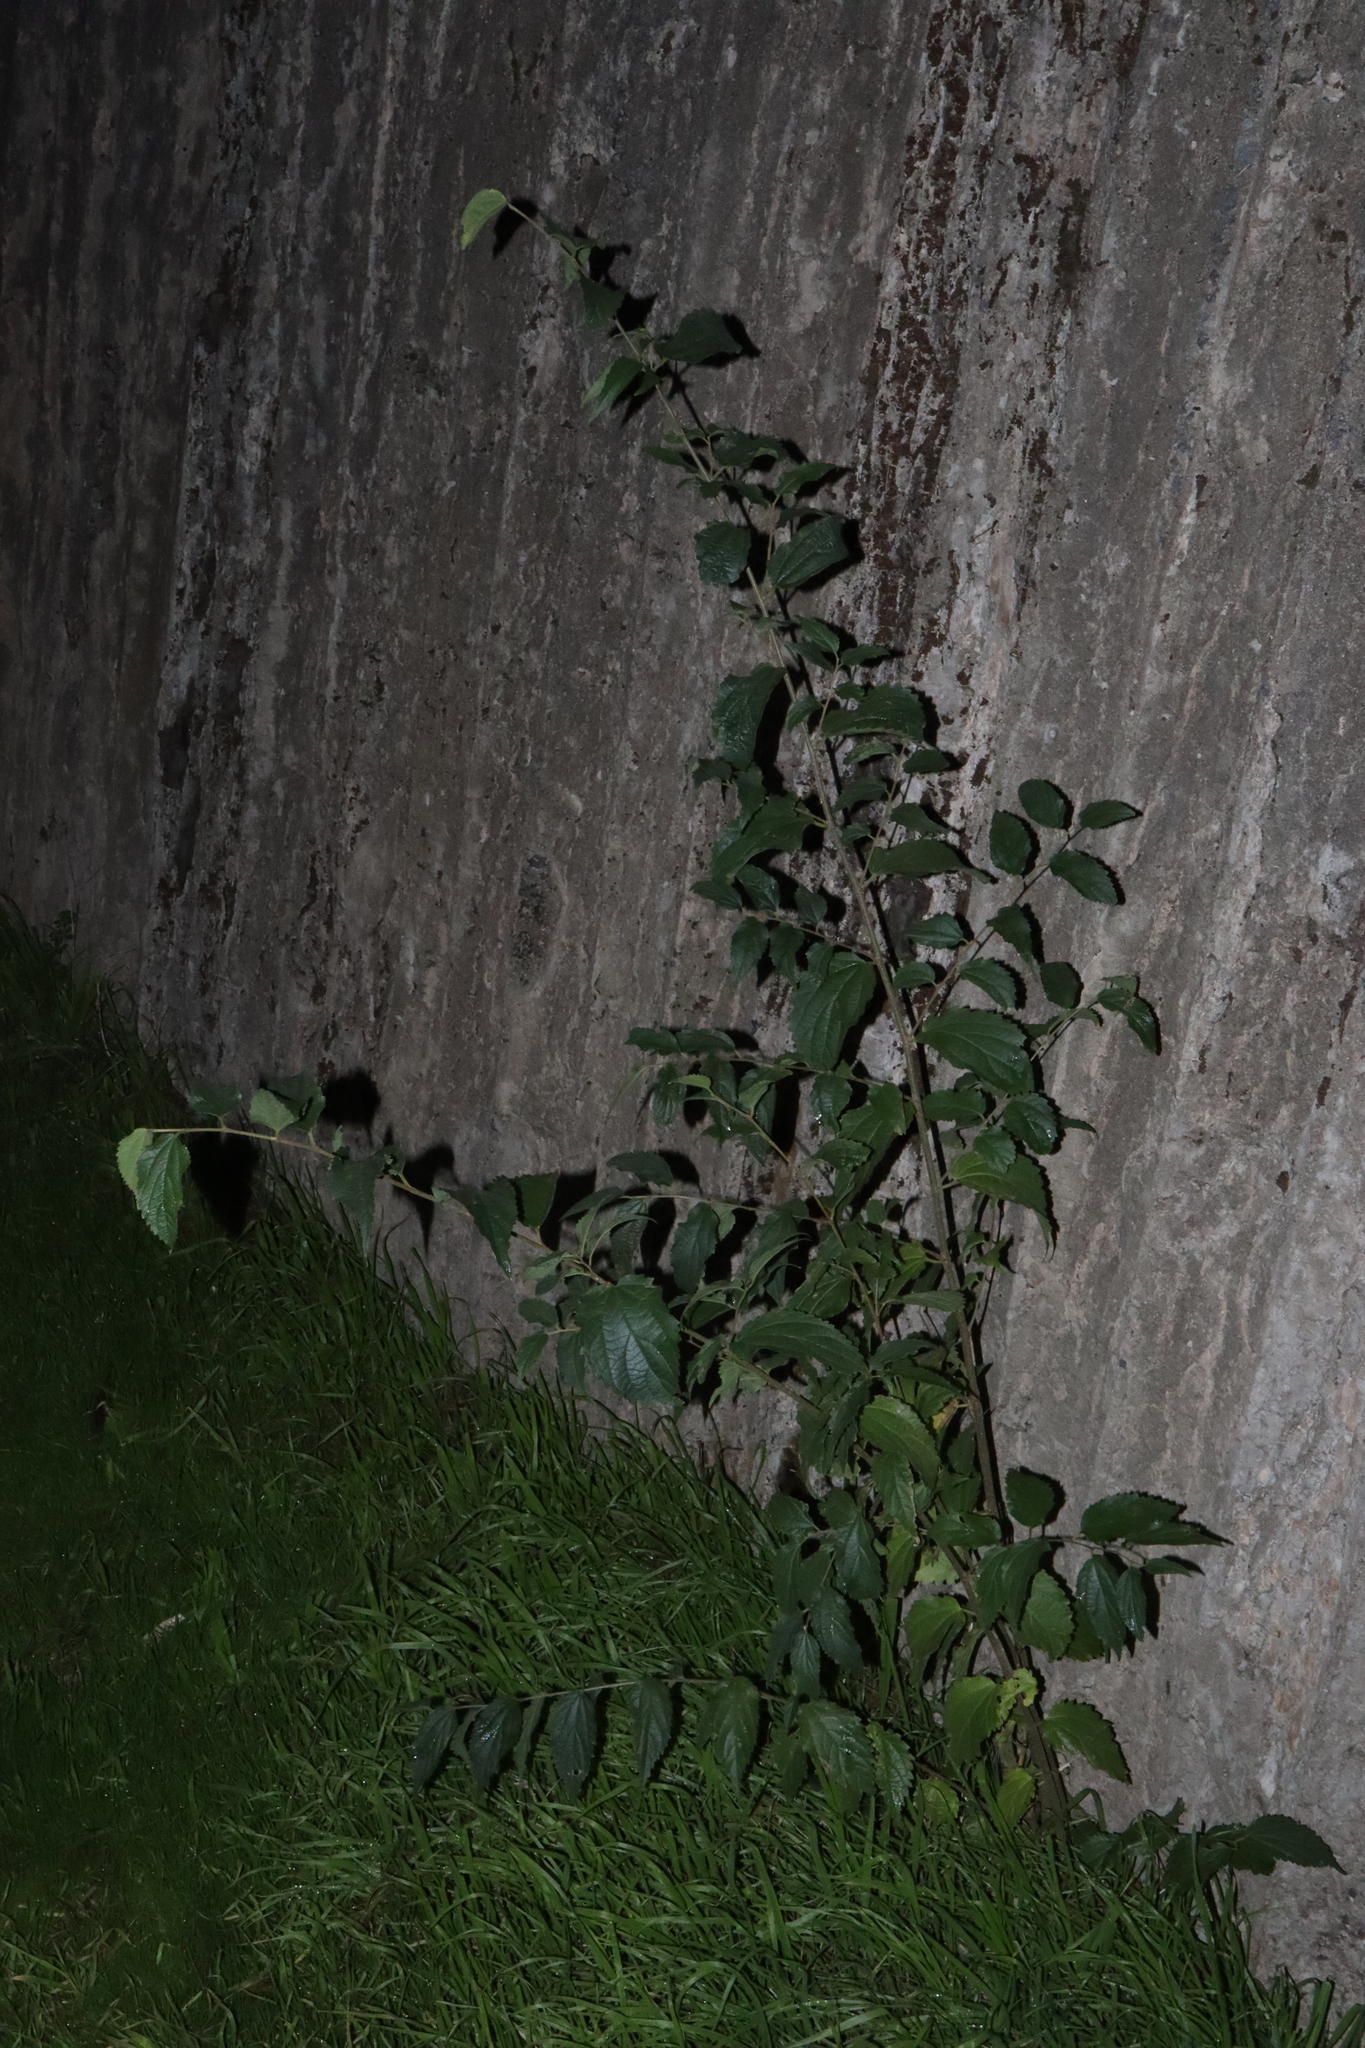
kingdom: Plantae
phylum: Tracheophyta
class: Magnoliopsida
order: Rosales
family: Cannabaceae
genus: Celtis
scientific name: Celtis australis
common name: European hackberry
